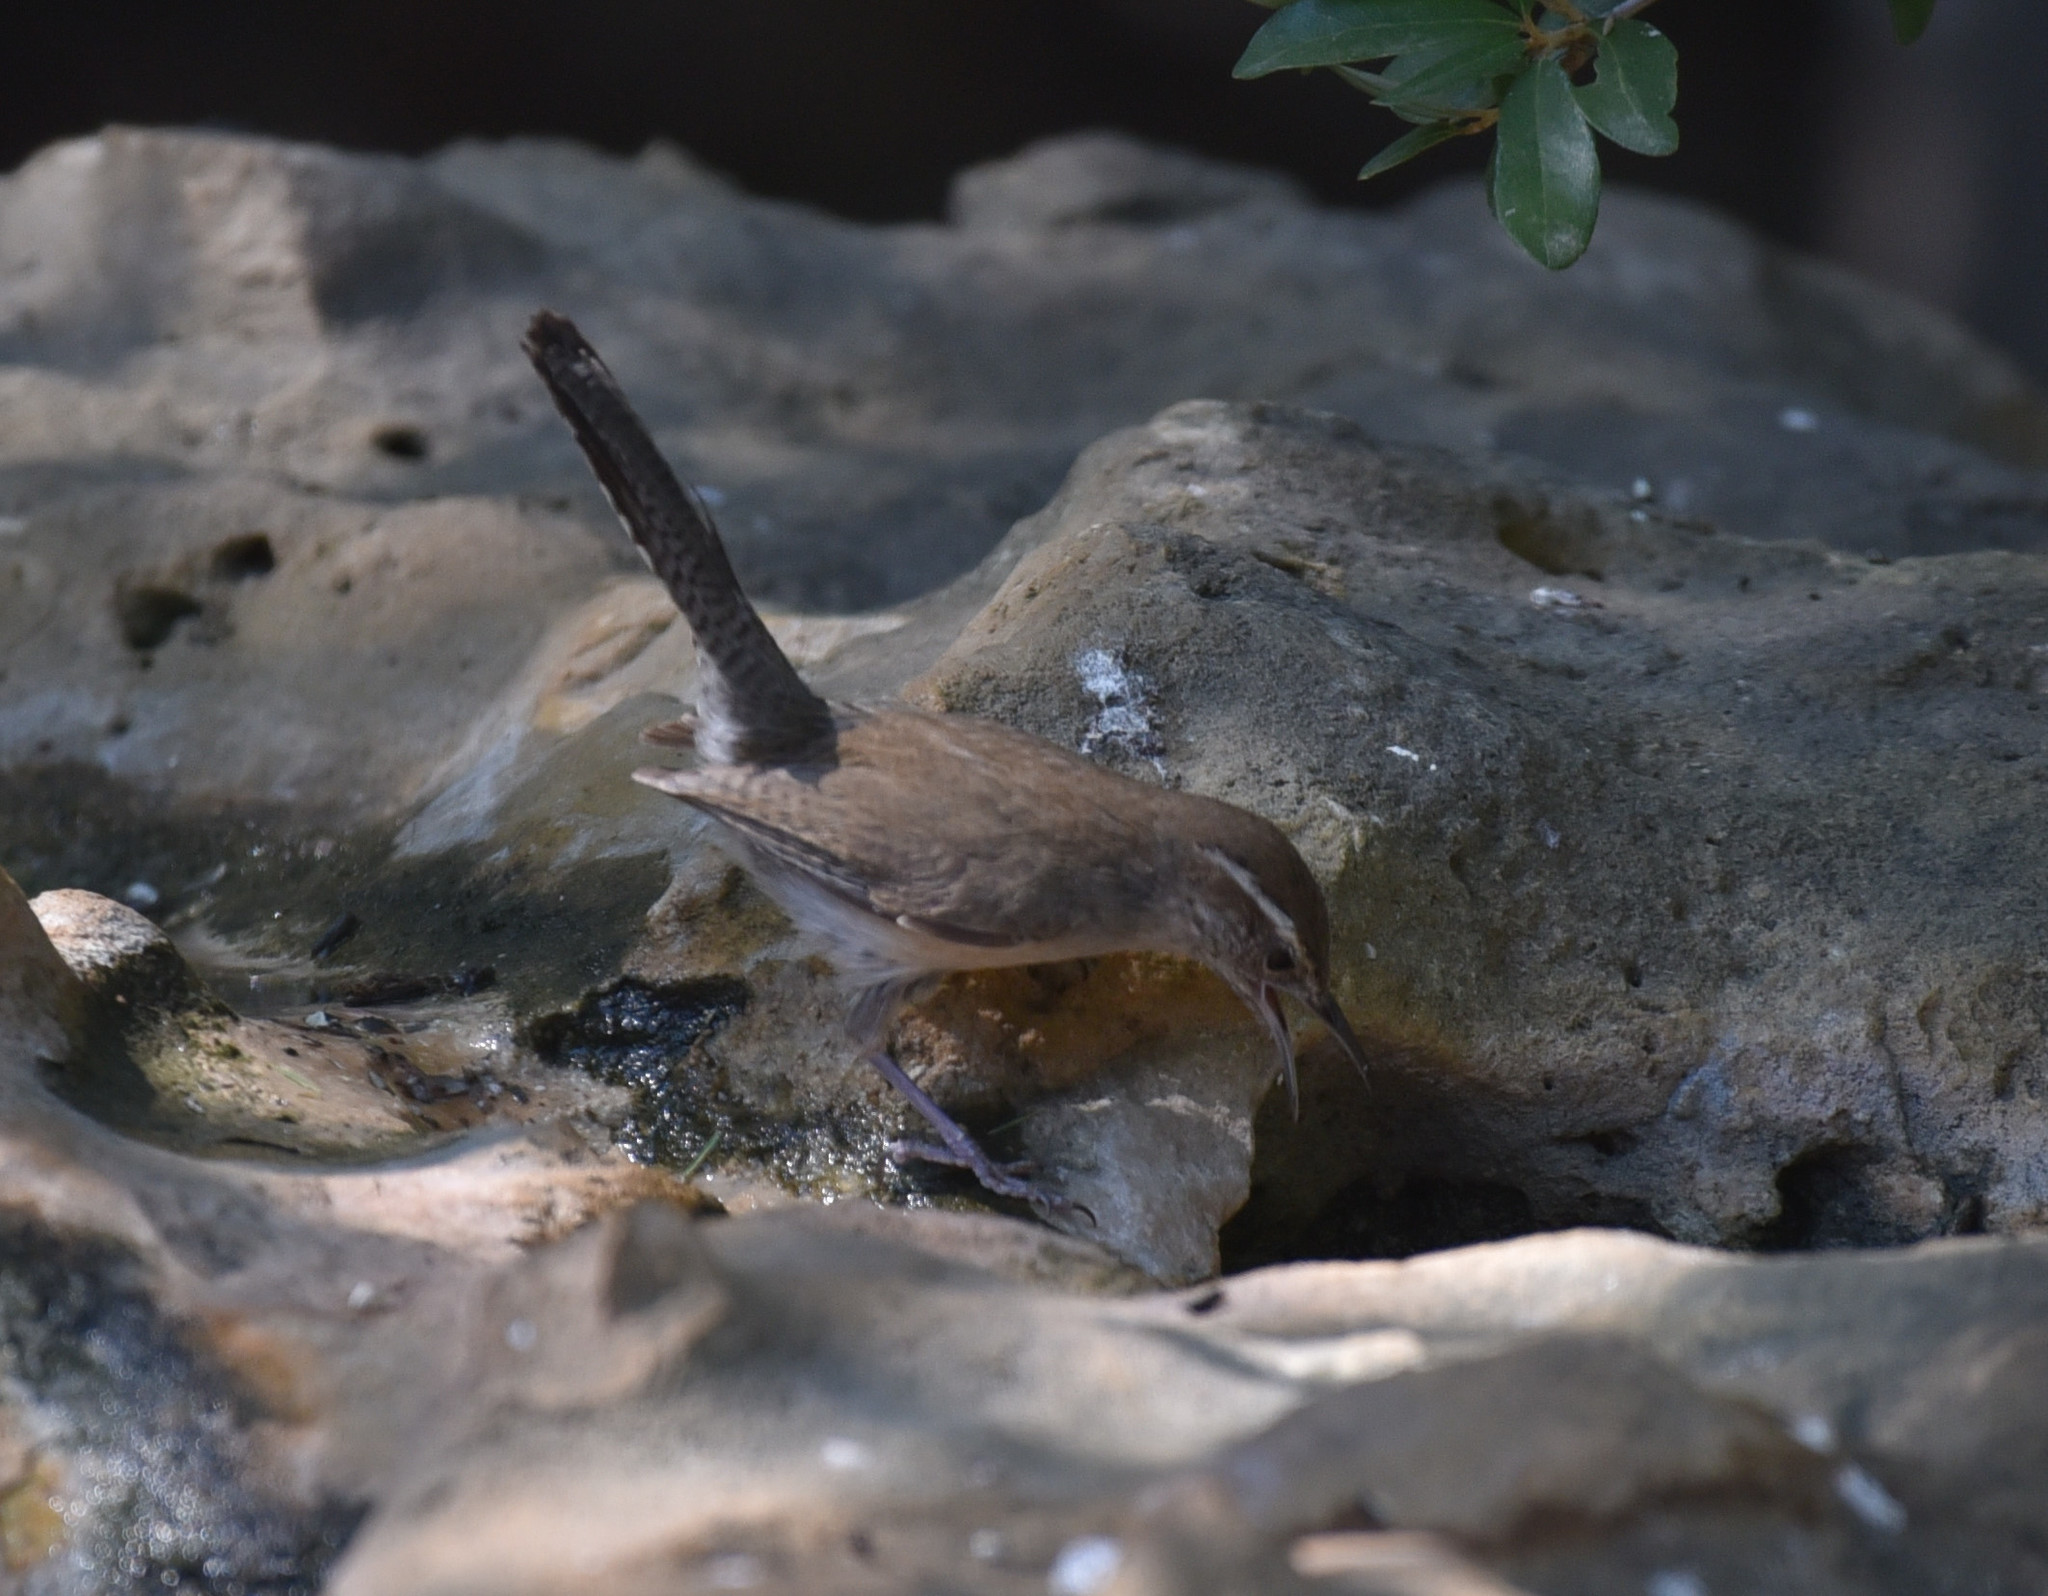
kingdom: Animalia
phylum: Chordata
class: Aves
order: Passeriformes
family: Troglodytidae
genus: Thryomanes
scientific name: Thryomanes bewickii
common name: Bewick's wren
